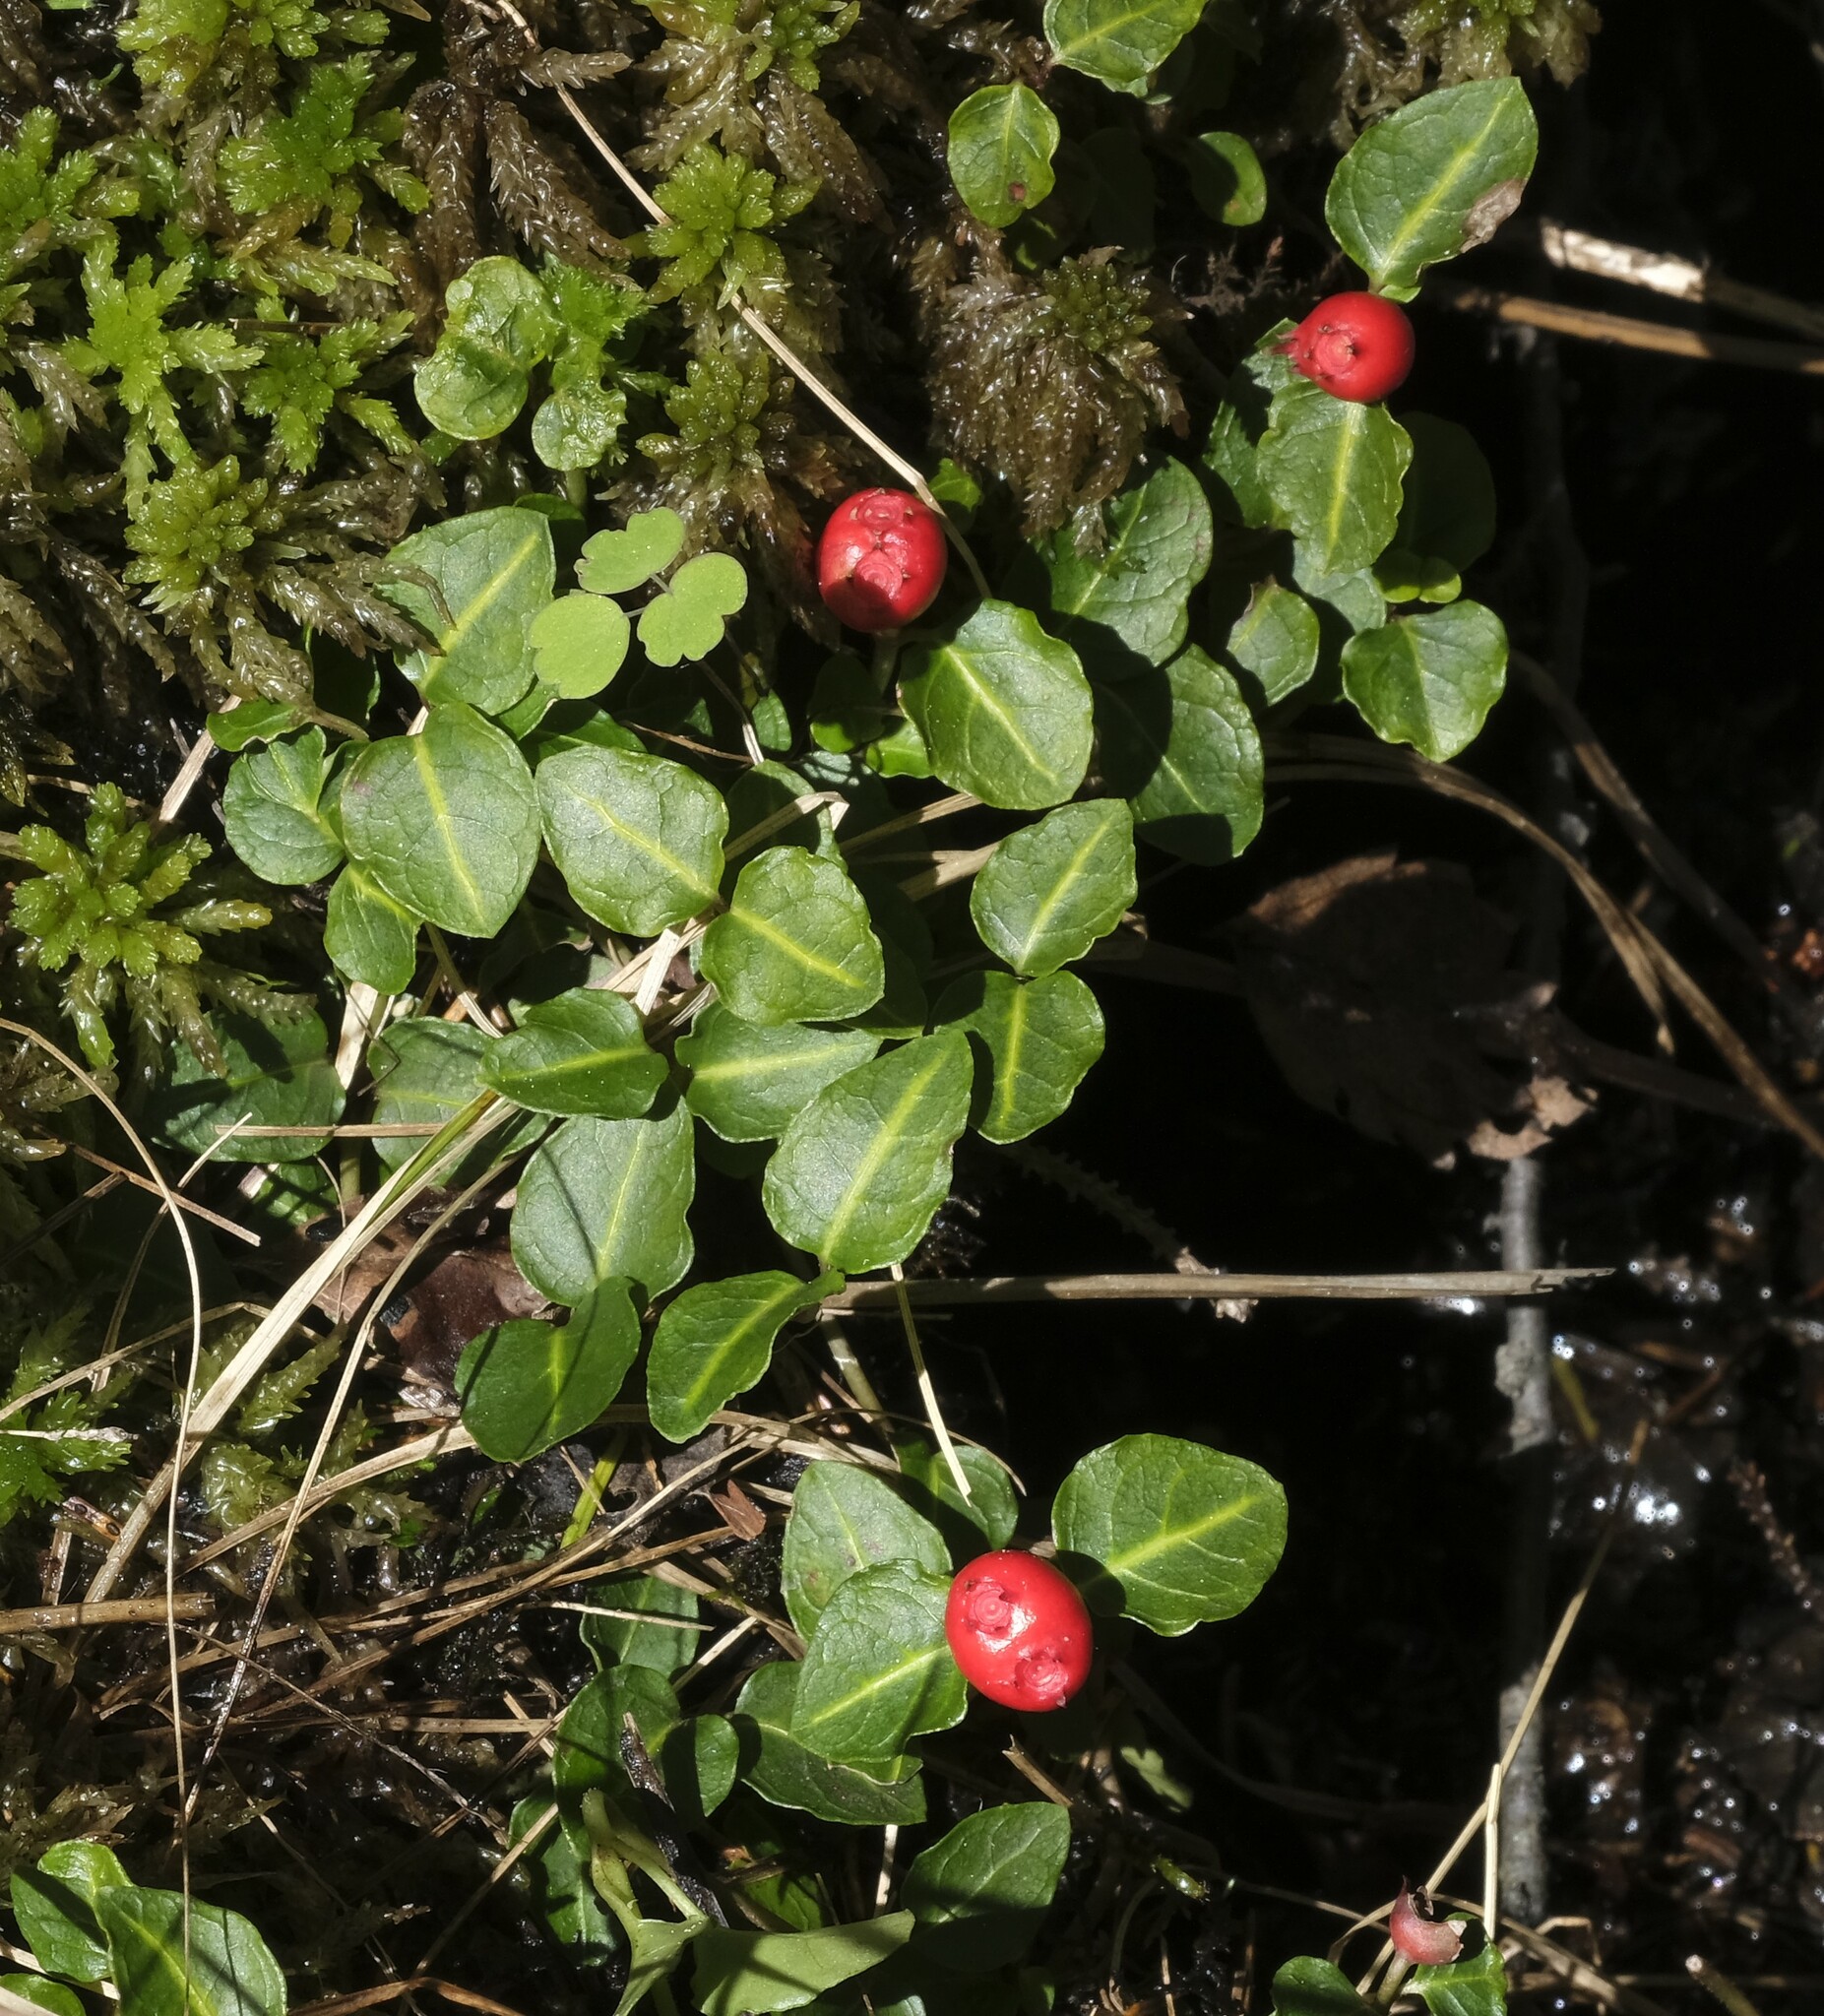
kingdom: Plantae
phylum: Tracheophyta
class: Magnoliopsida
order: Gentianales
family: Rubiaceae
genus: Mitchella
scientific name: Mitchella repens
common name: Partridge-berry
